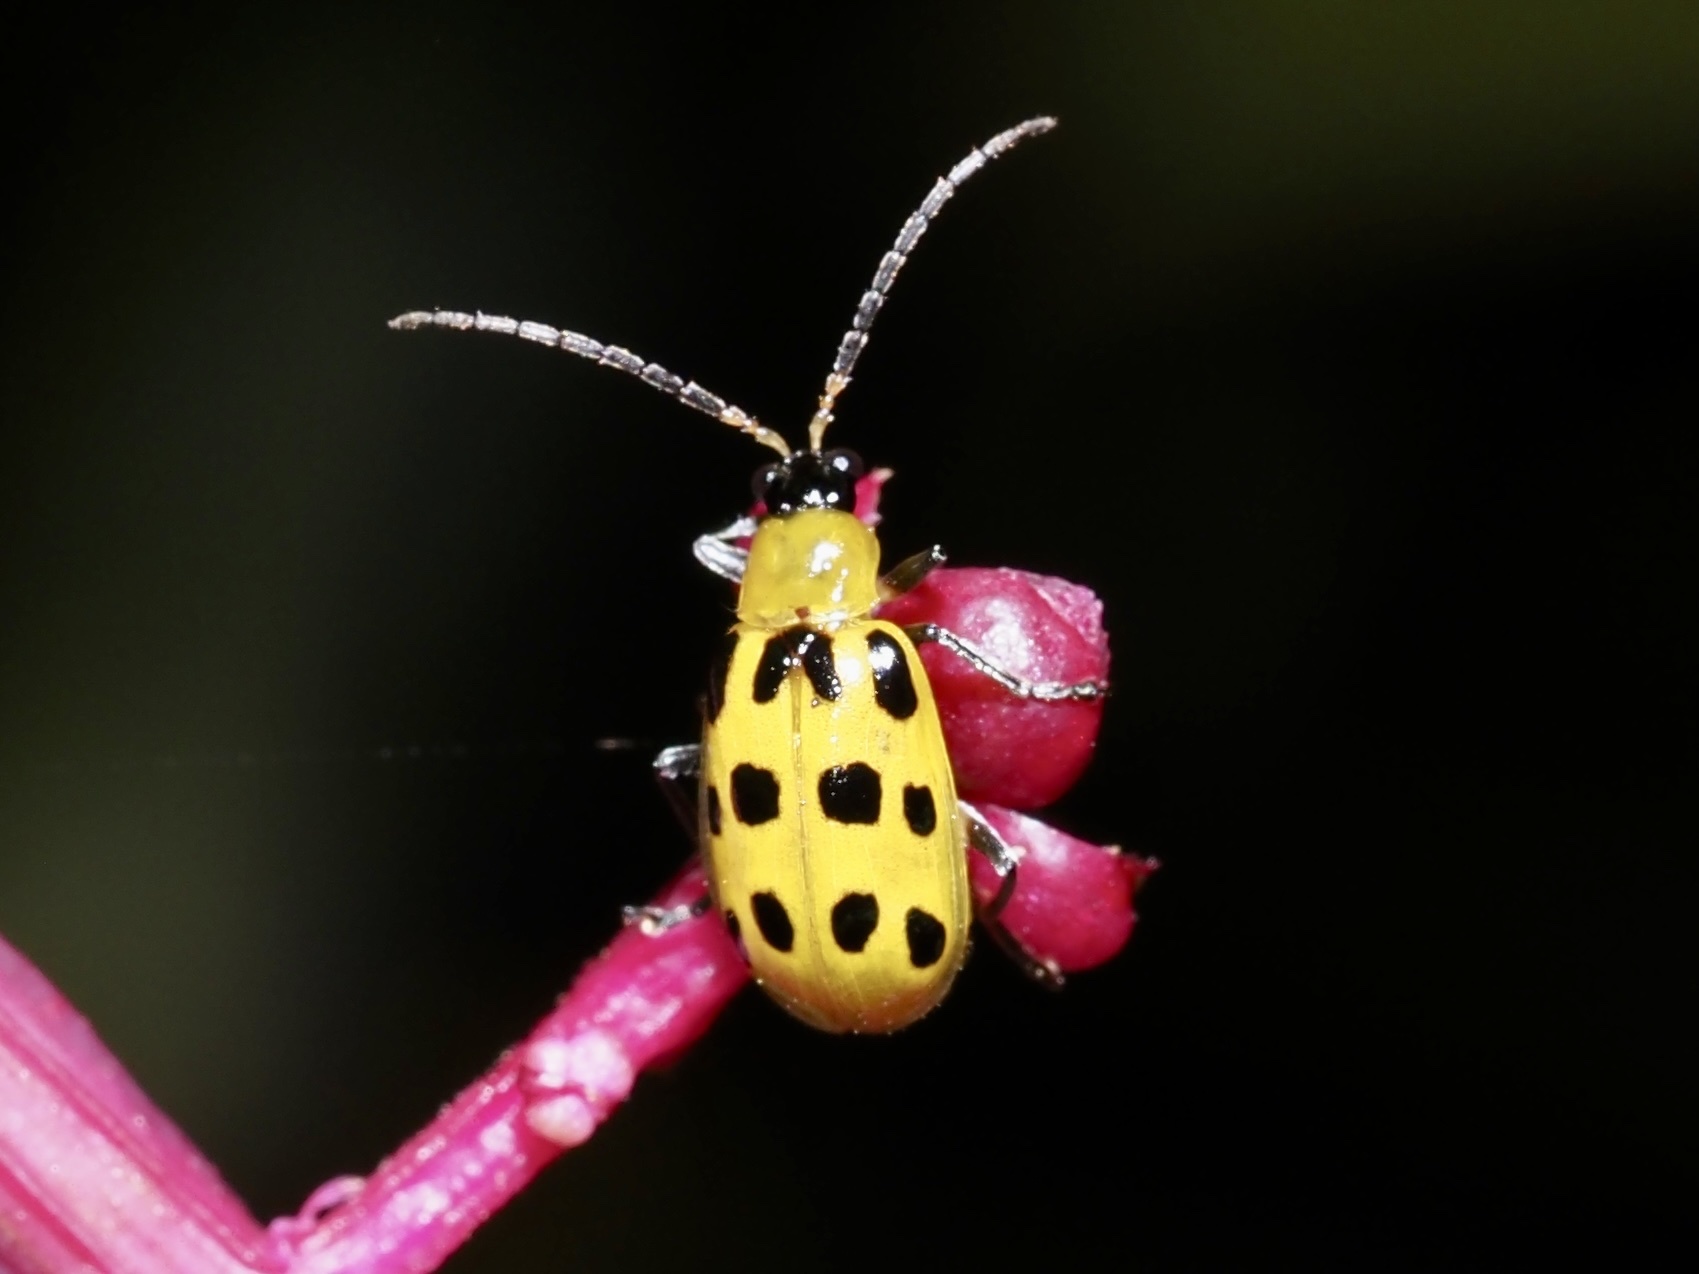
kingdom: Animalia
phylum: Arthropoda
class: Insecta
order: Coleoptera
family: Chrysomelidae
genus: Diabrotica
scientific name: Diabrotica undecimpunctata
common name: Spotted cucumber beetle
